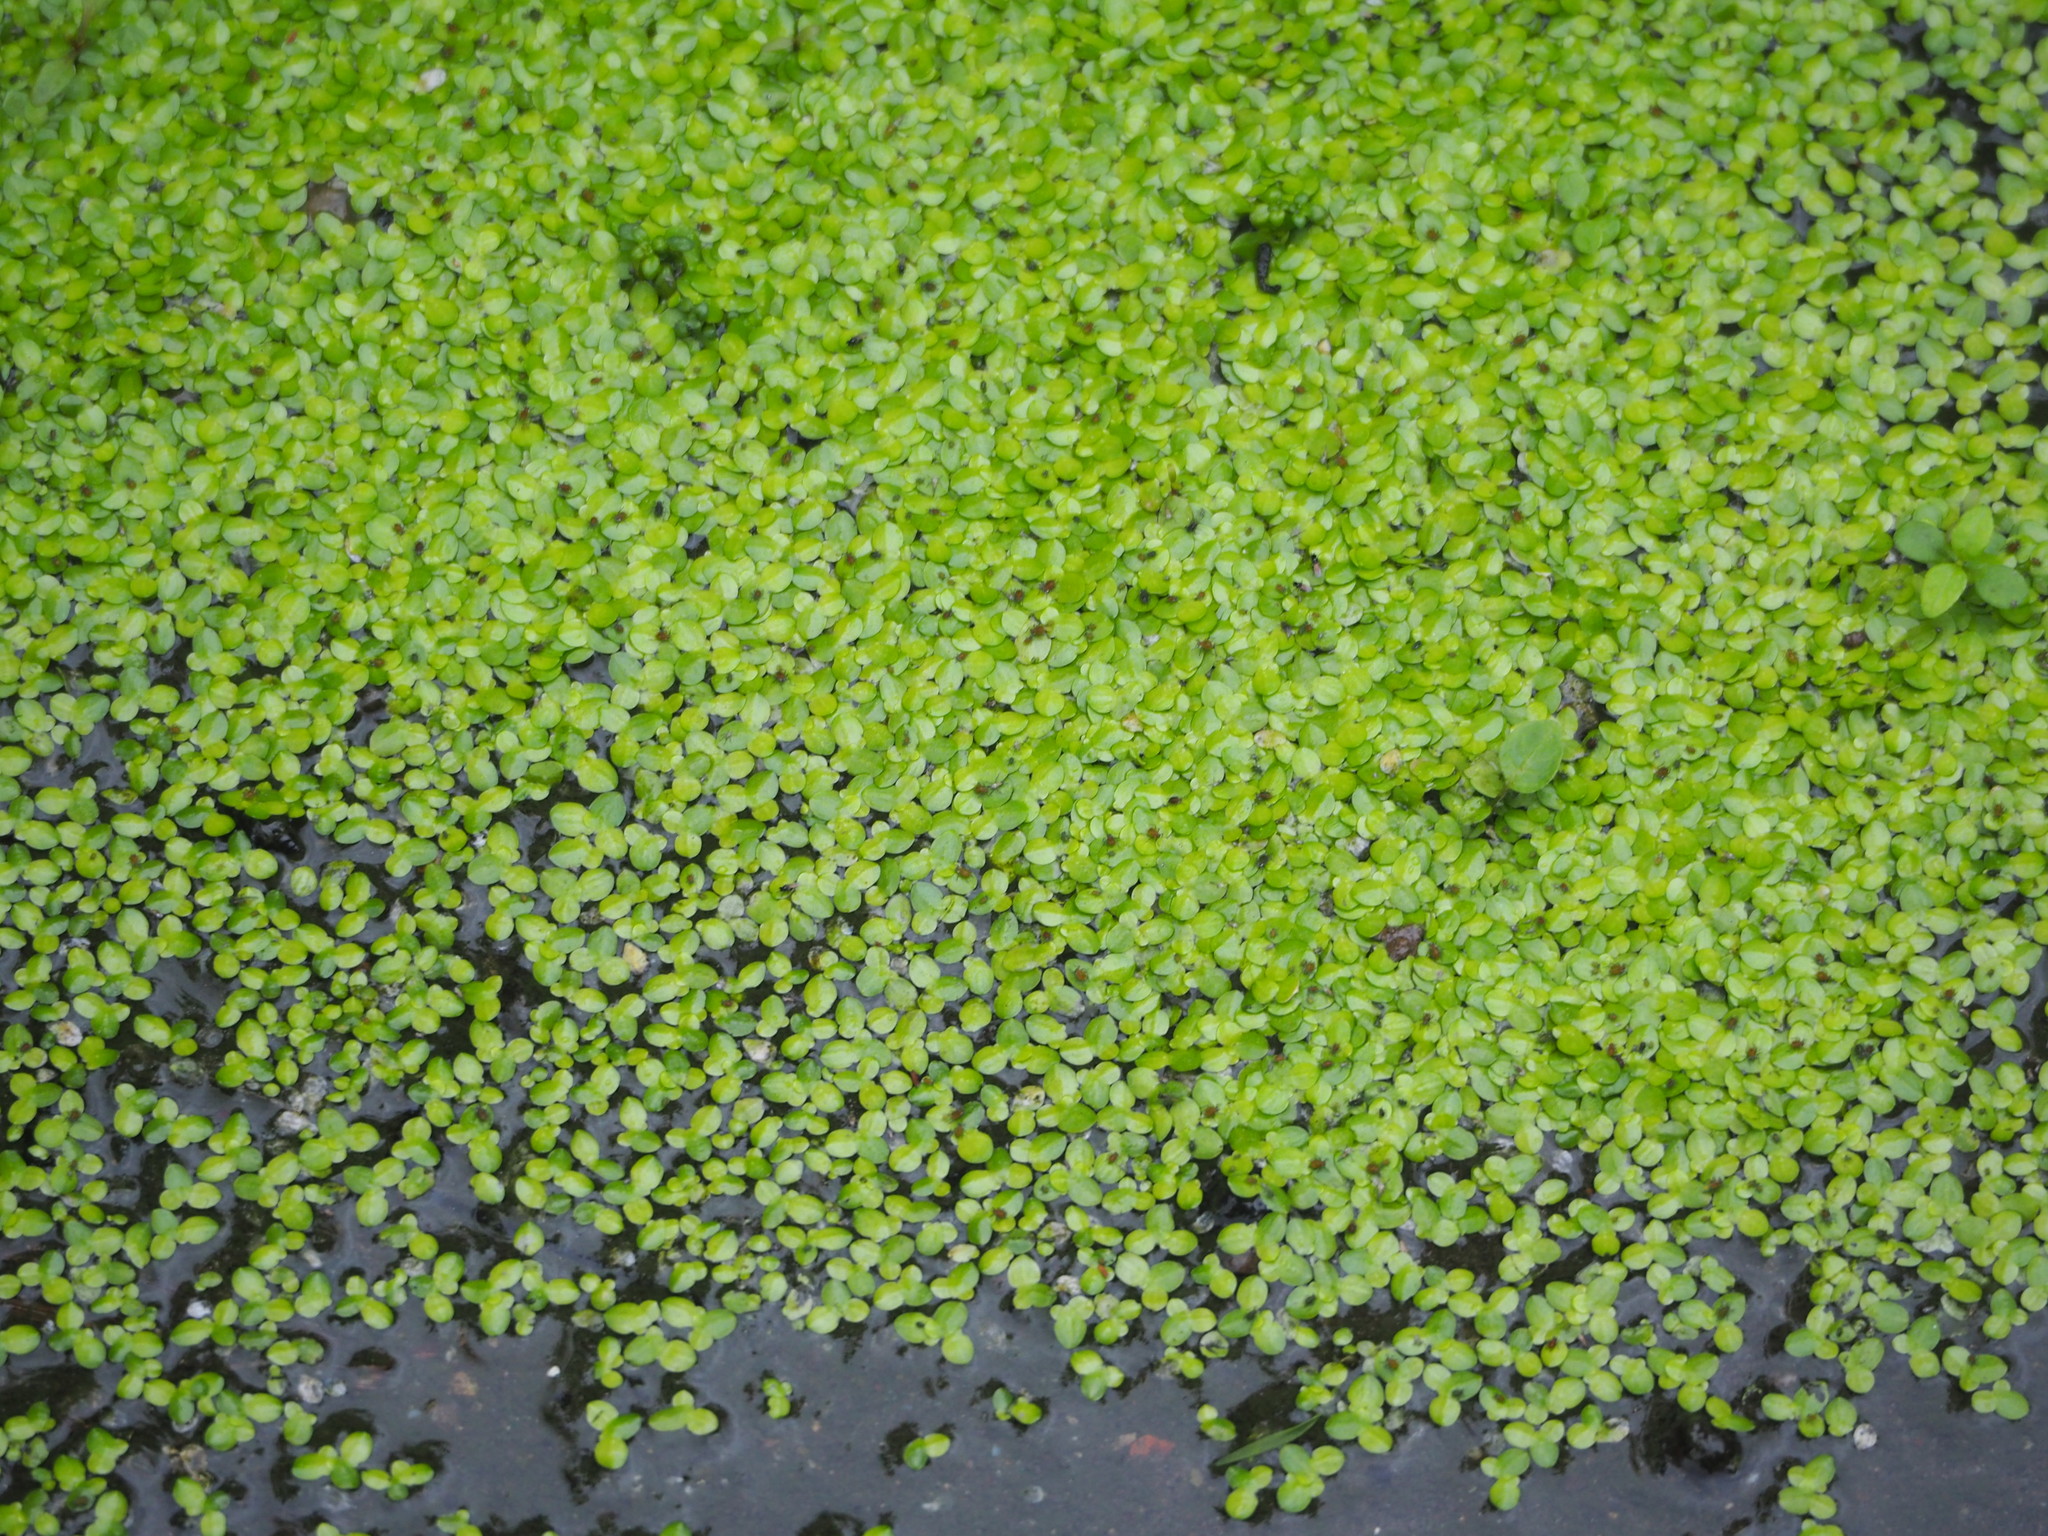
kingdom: Plantae
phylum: Tracheophyta
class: Liliopsida
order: Alismatales
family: Araceae
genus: Lemna
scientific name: Lemna aequinoctialis
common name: Duckweed
